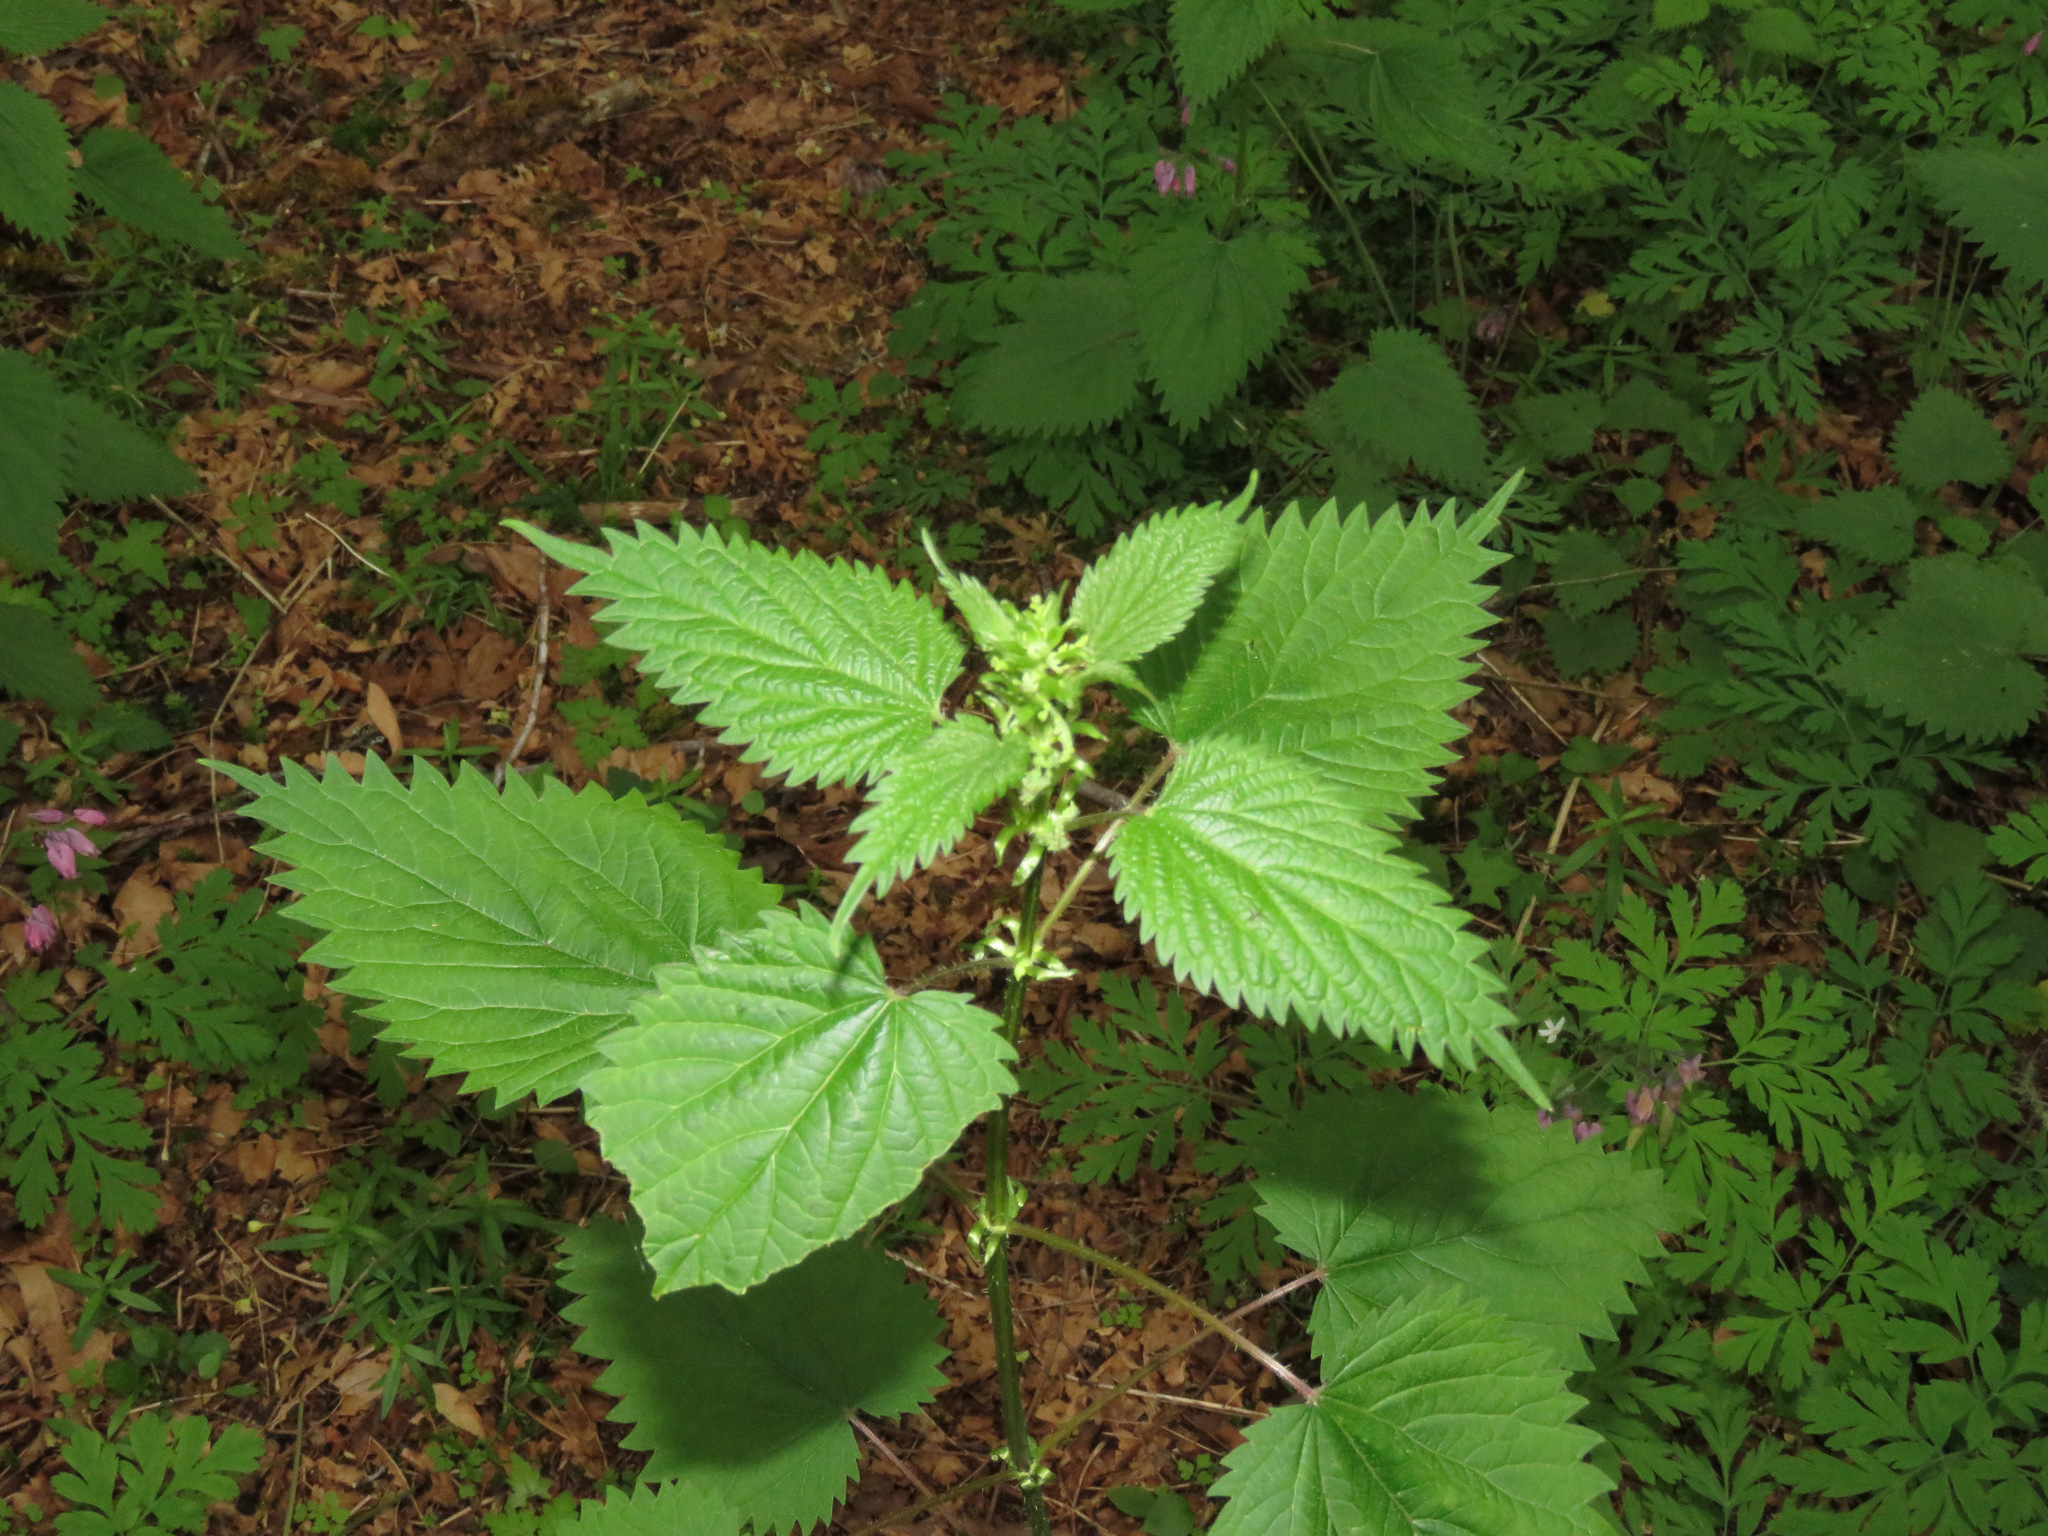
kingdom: Plantae
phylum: Tracheophyta
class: Magnoliopsida
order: Rosales
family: Urticaceae
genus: Urtica
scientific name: Urtica dioica
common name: Common nettle
